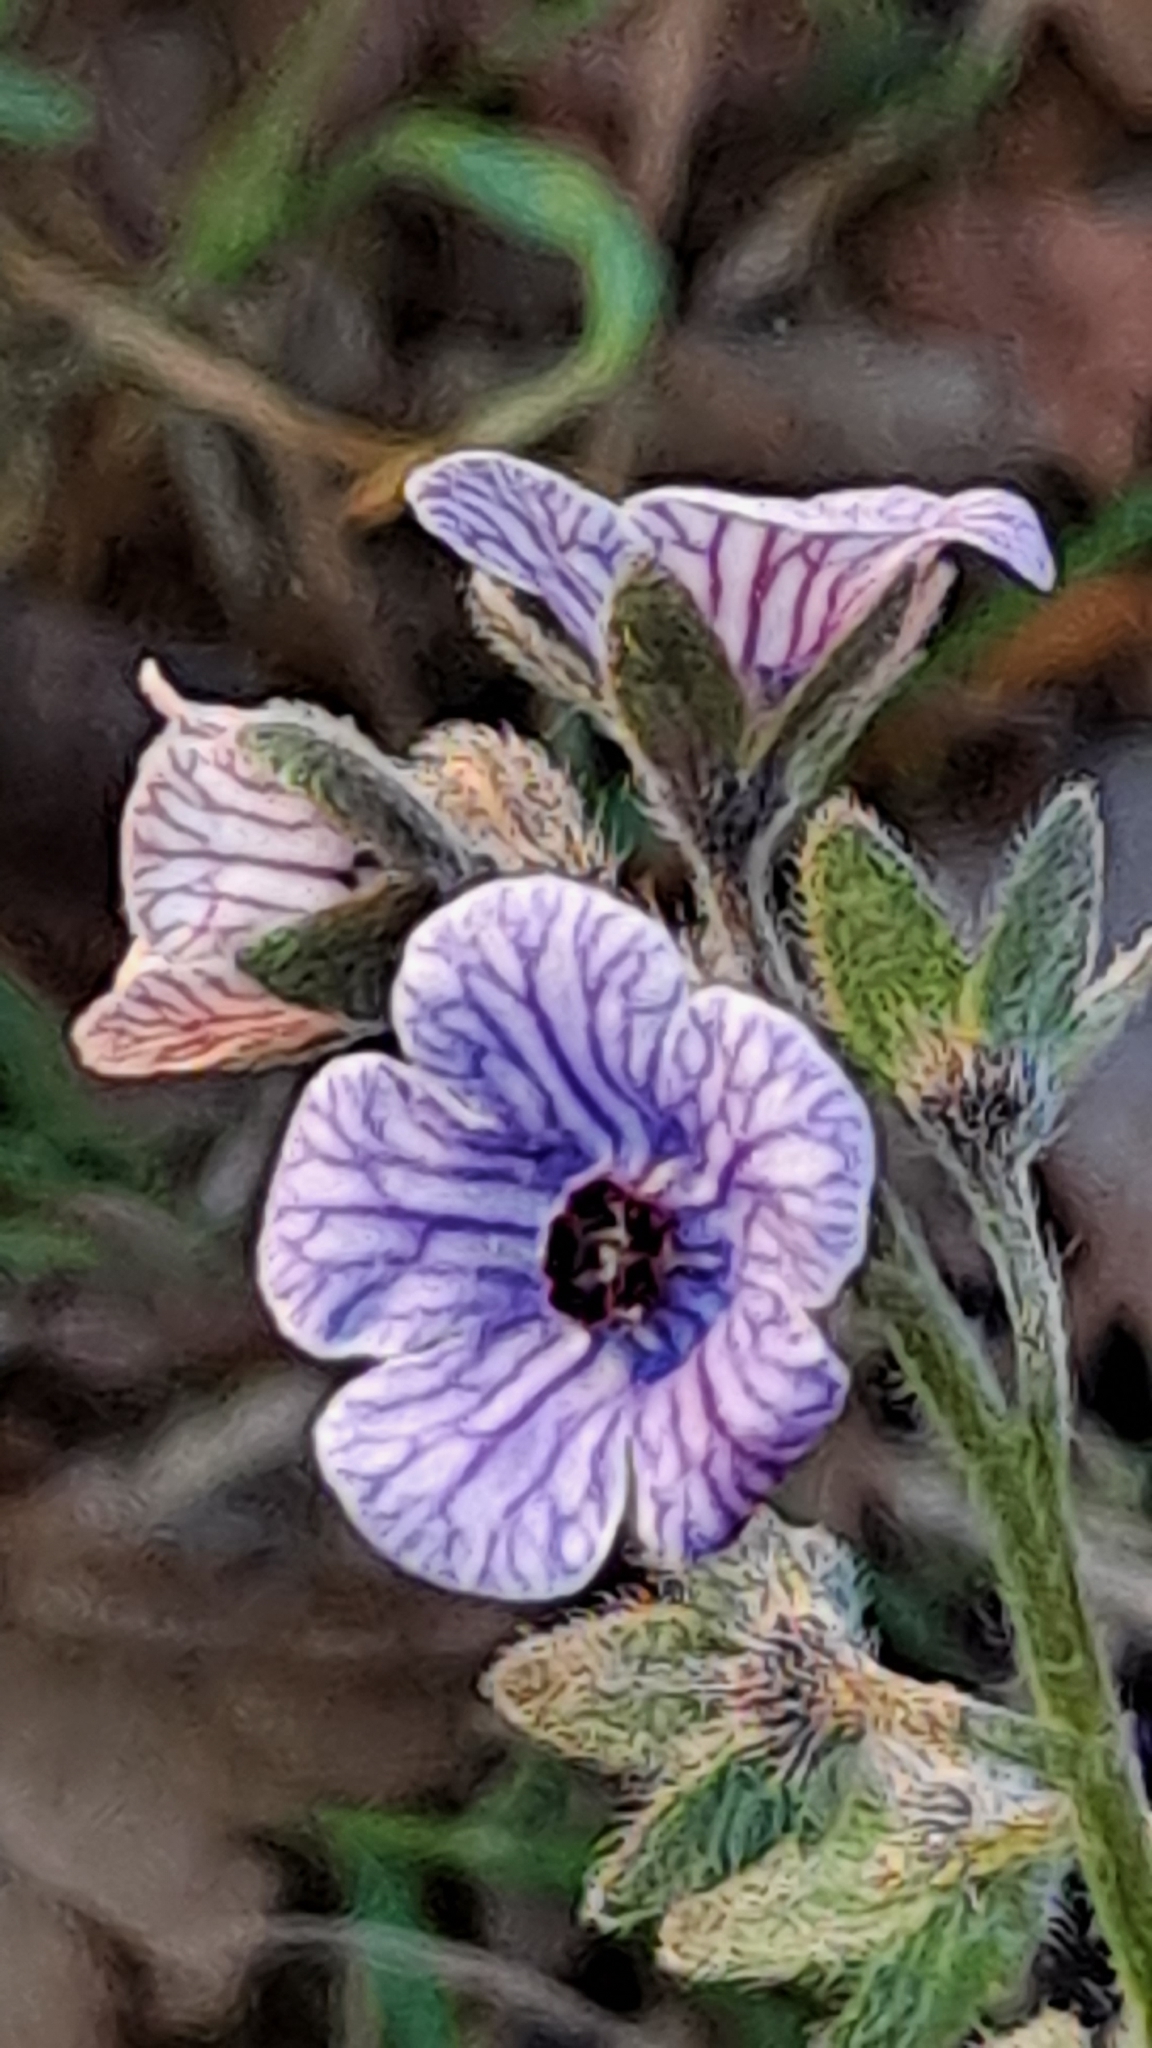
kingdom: Plantae
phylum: Tracheophyta
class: Magnoliopsida
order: Boraginales
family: Boraginaceae
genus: Cynoglossum
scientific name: Cynoglossum creticum
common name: Blue hound's tongue
